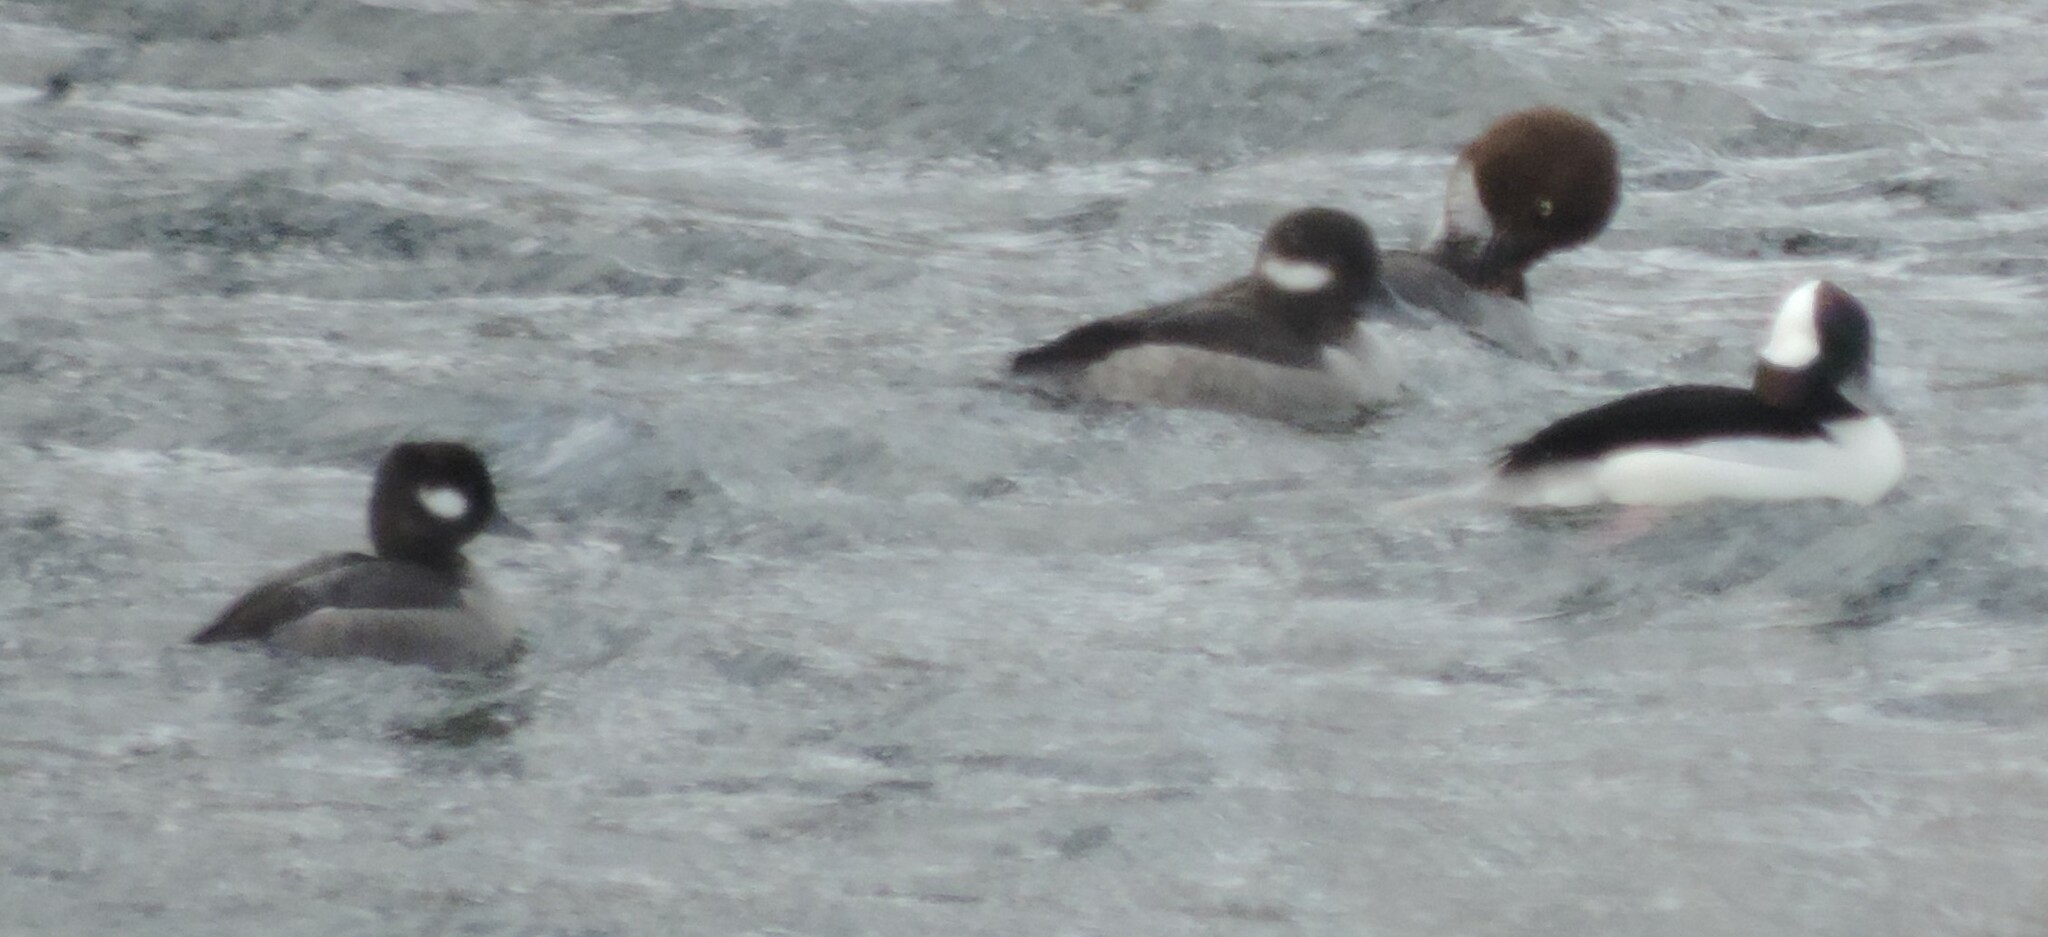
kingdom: Animalia
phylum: Chordata
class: Aves
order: Anseriformes
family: Anatidae
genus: Bucephala
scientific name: Bucephala albeola
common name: Bufflehead
